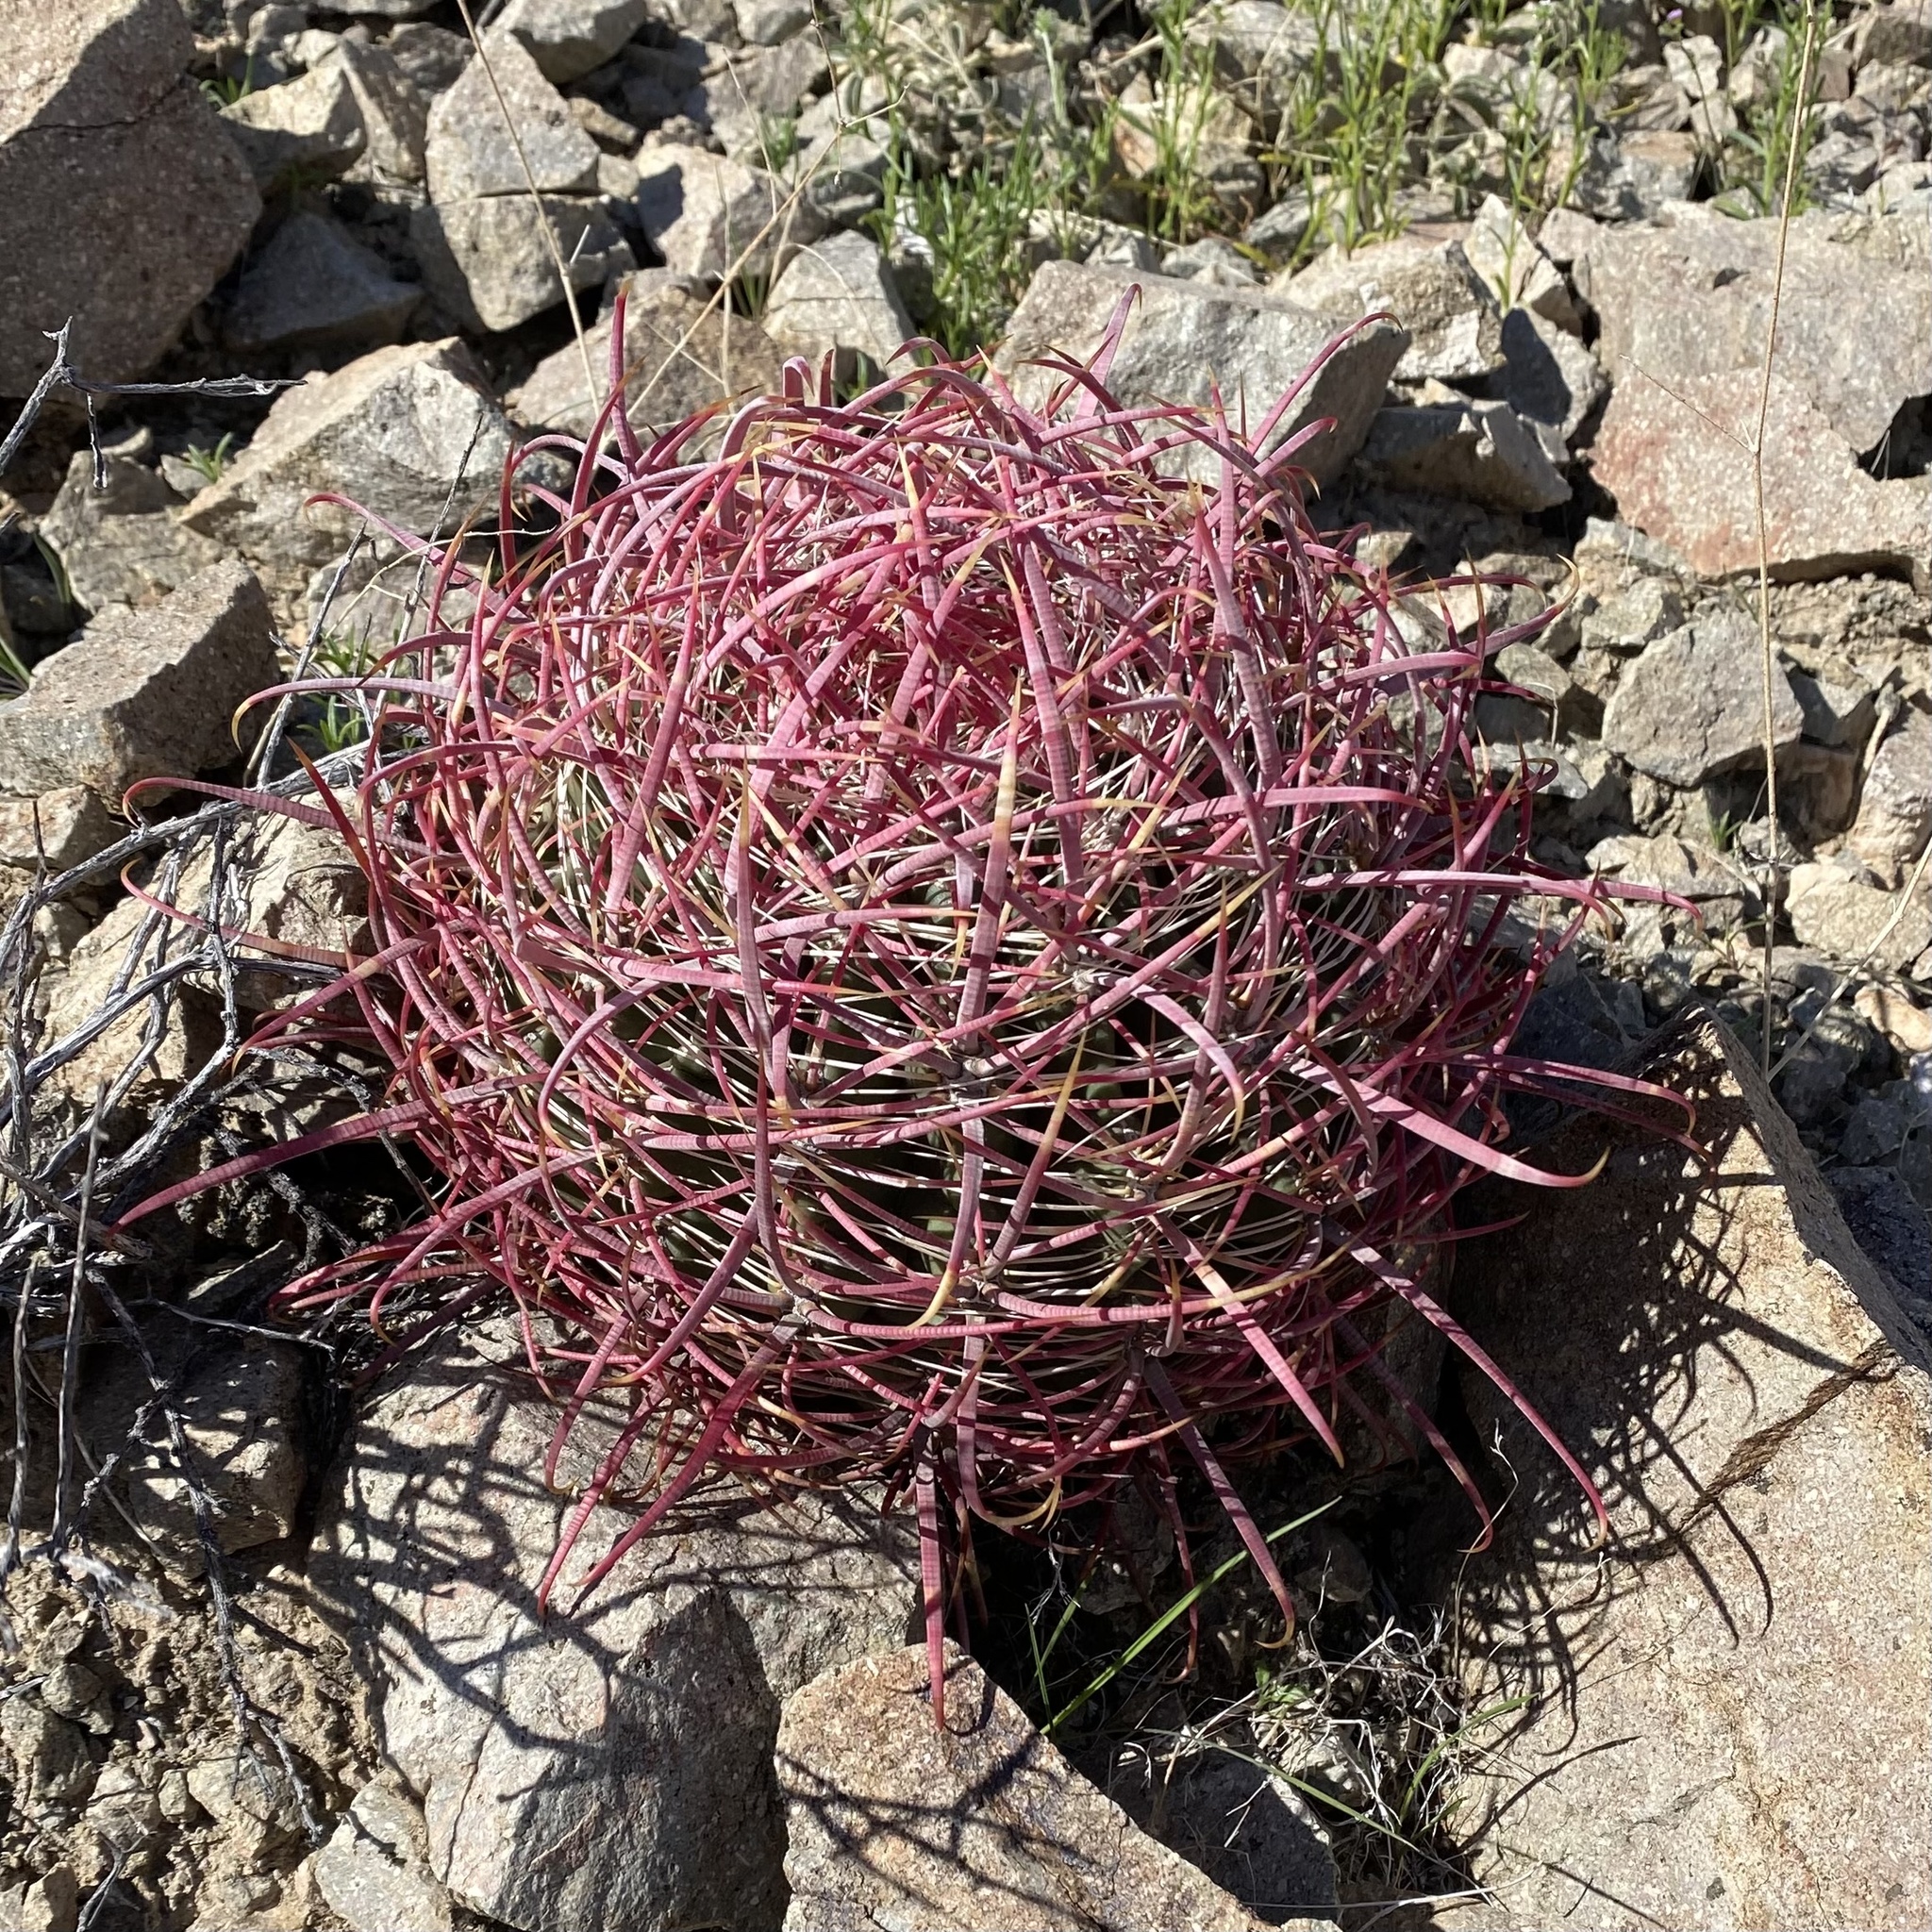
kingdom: Plantae
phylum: Tracheophyta
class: Magnoliopsida
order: Caryophyllales
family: Cactaceae
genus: Ferocactus
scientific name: Ferocactus cylindraceus
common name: California barrel cactus
